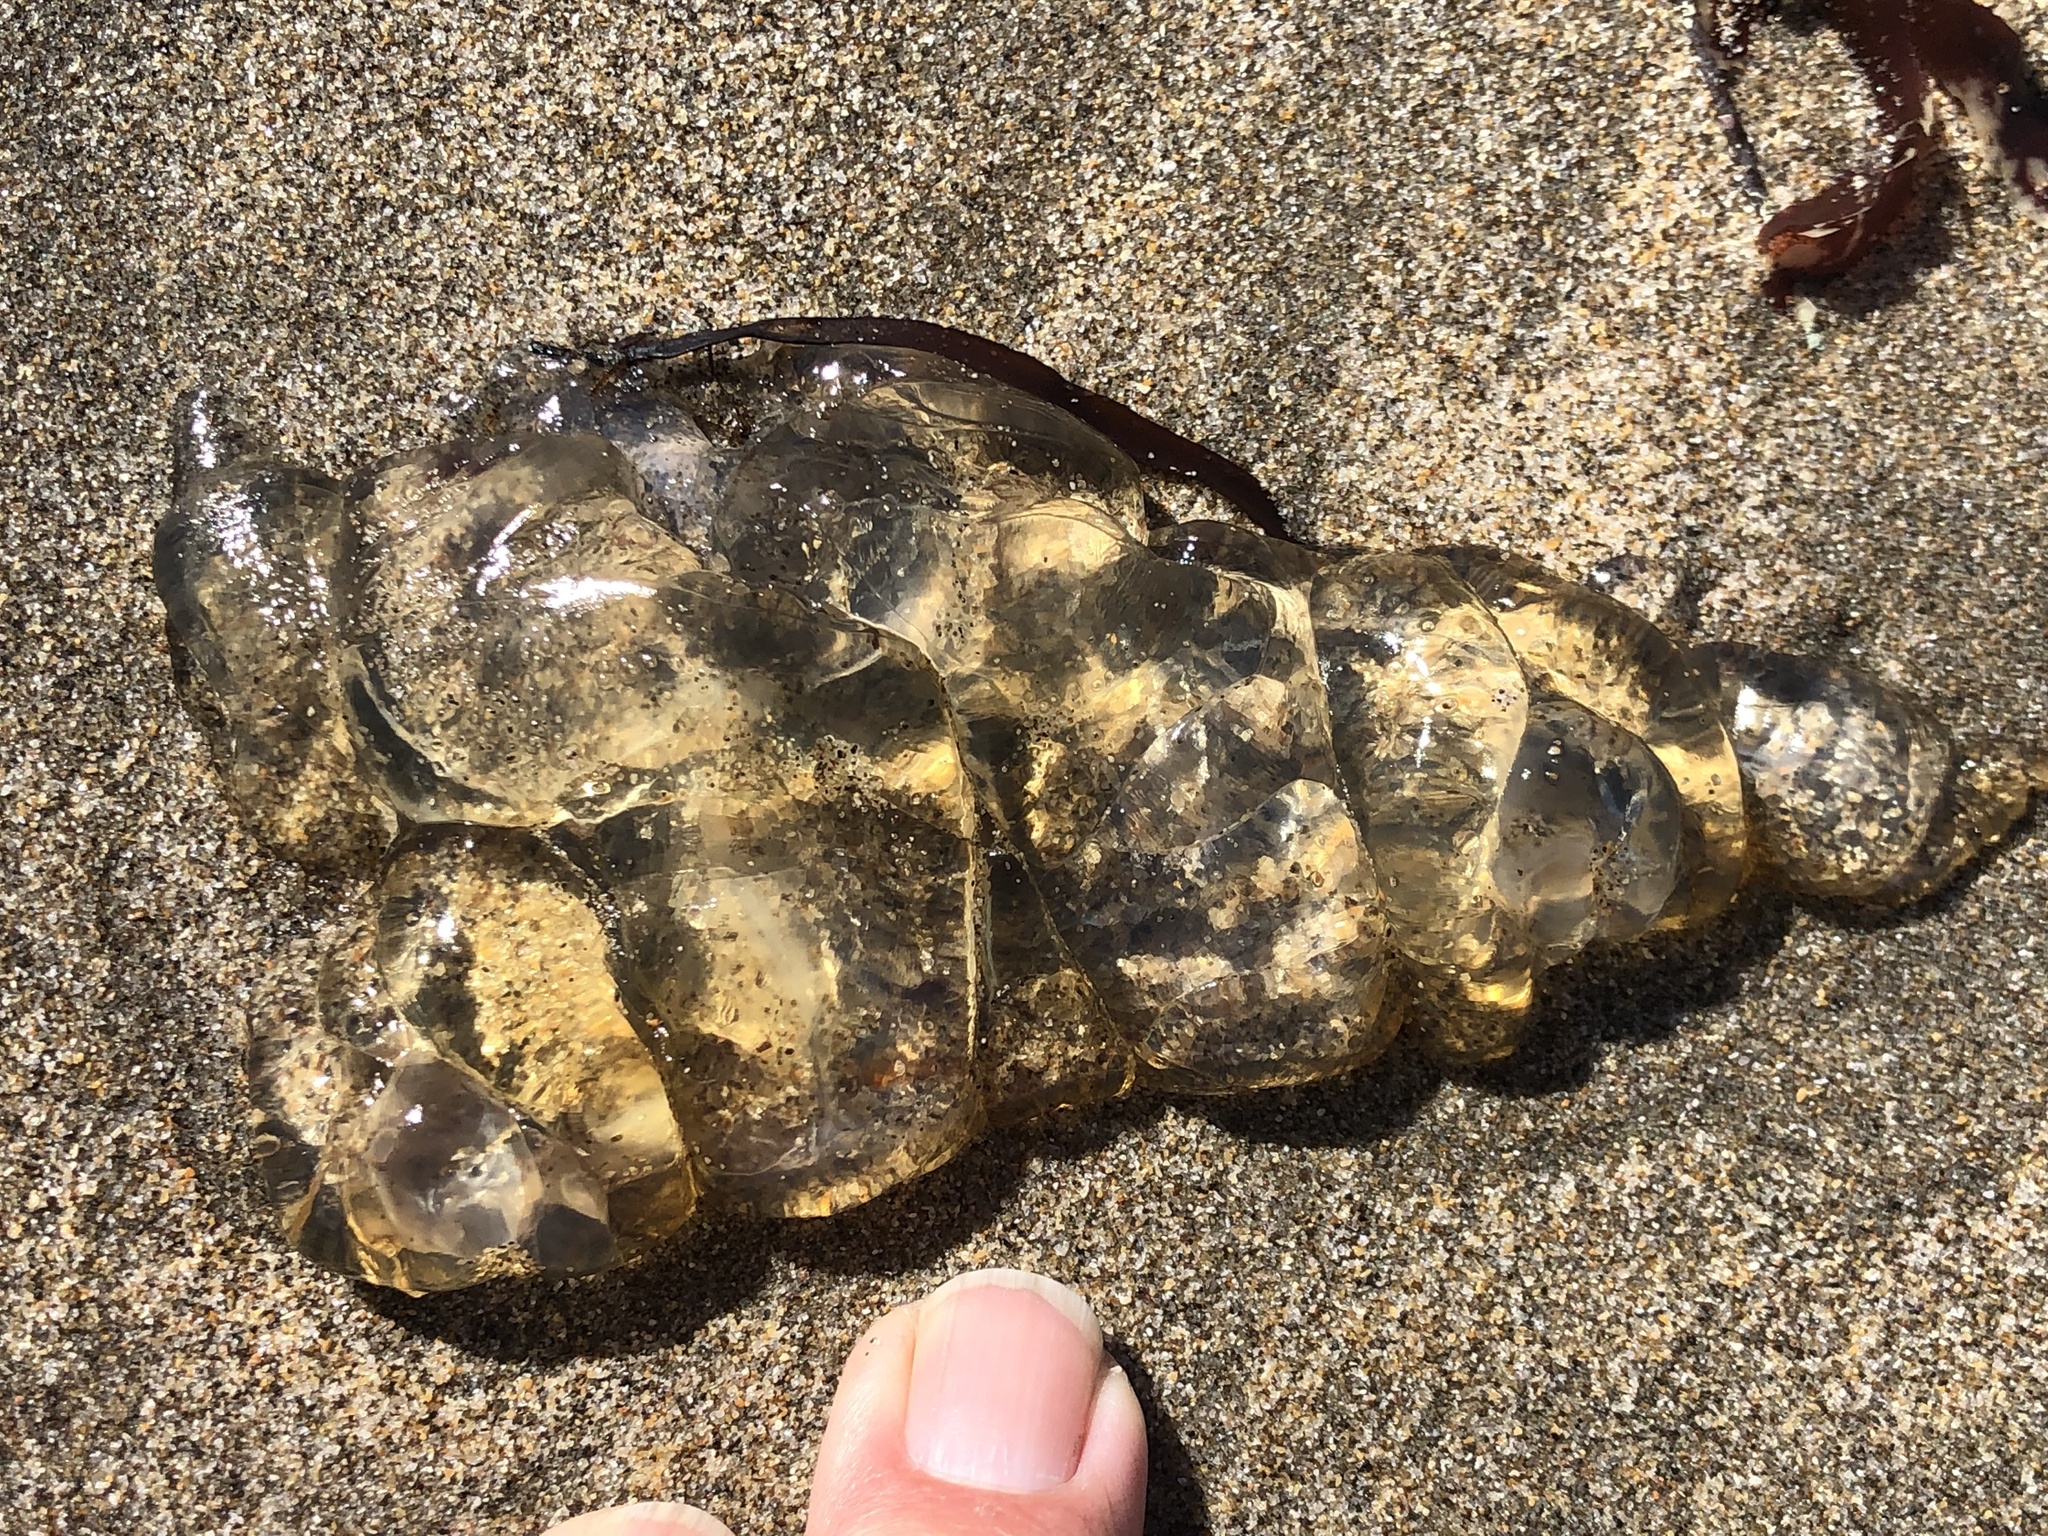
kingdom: Animalia
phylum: Cnidaria
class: Scyphozoa
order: Semaeostomeae
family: Pelagiidae
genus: Chrysaora
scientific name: Chrysaora fuscescens
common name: Sea nettle
